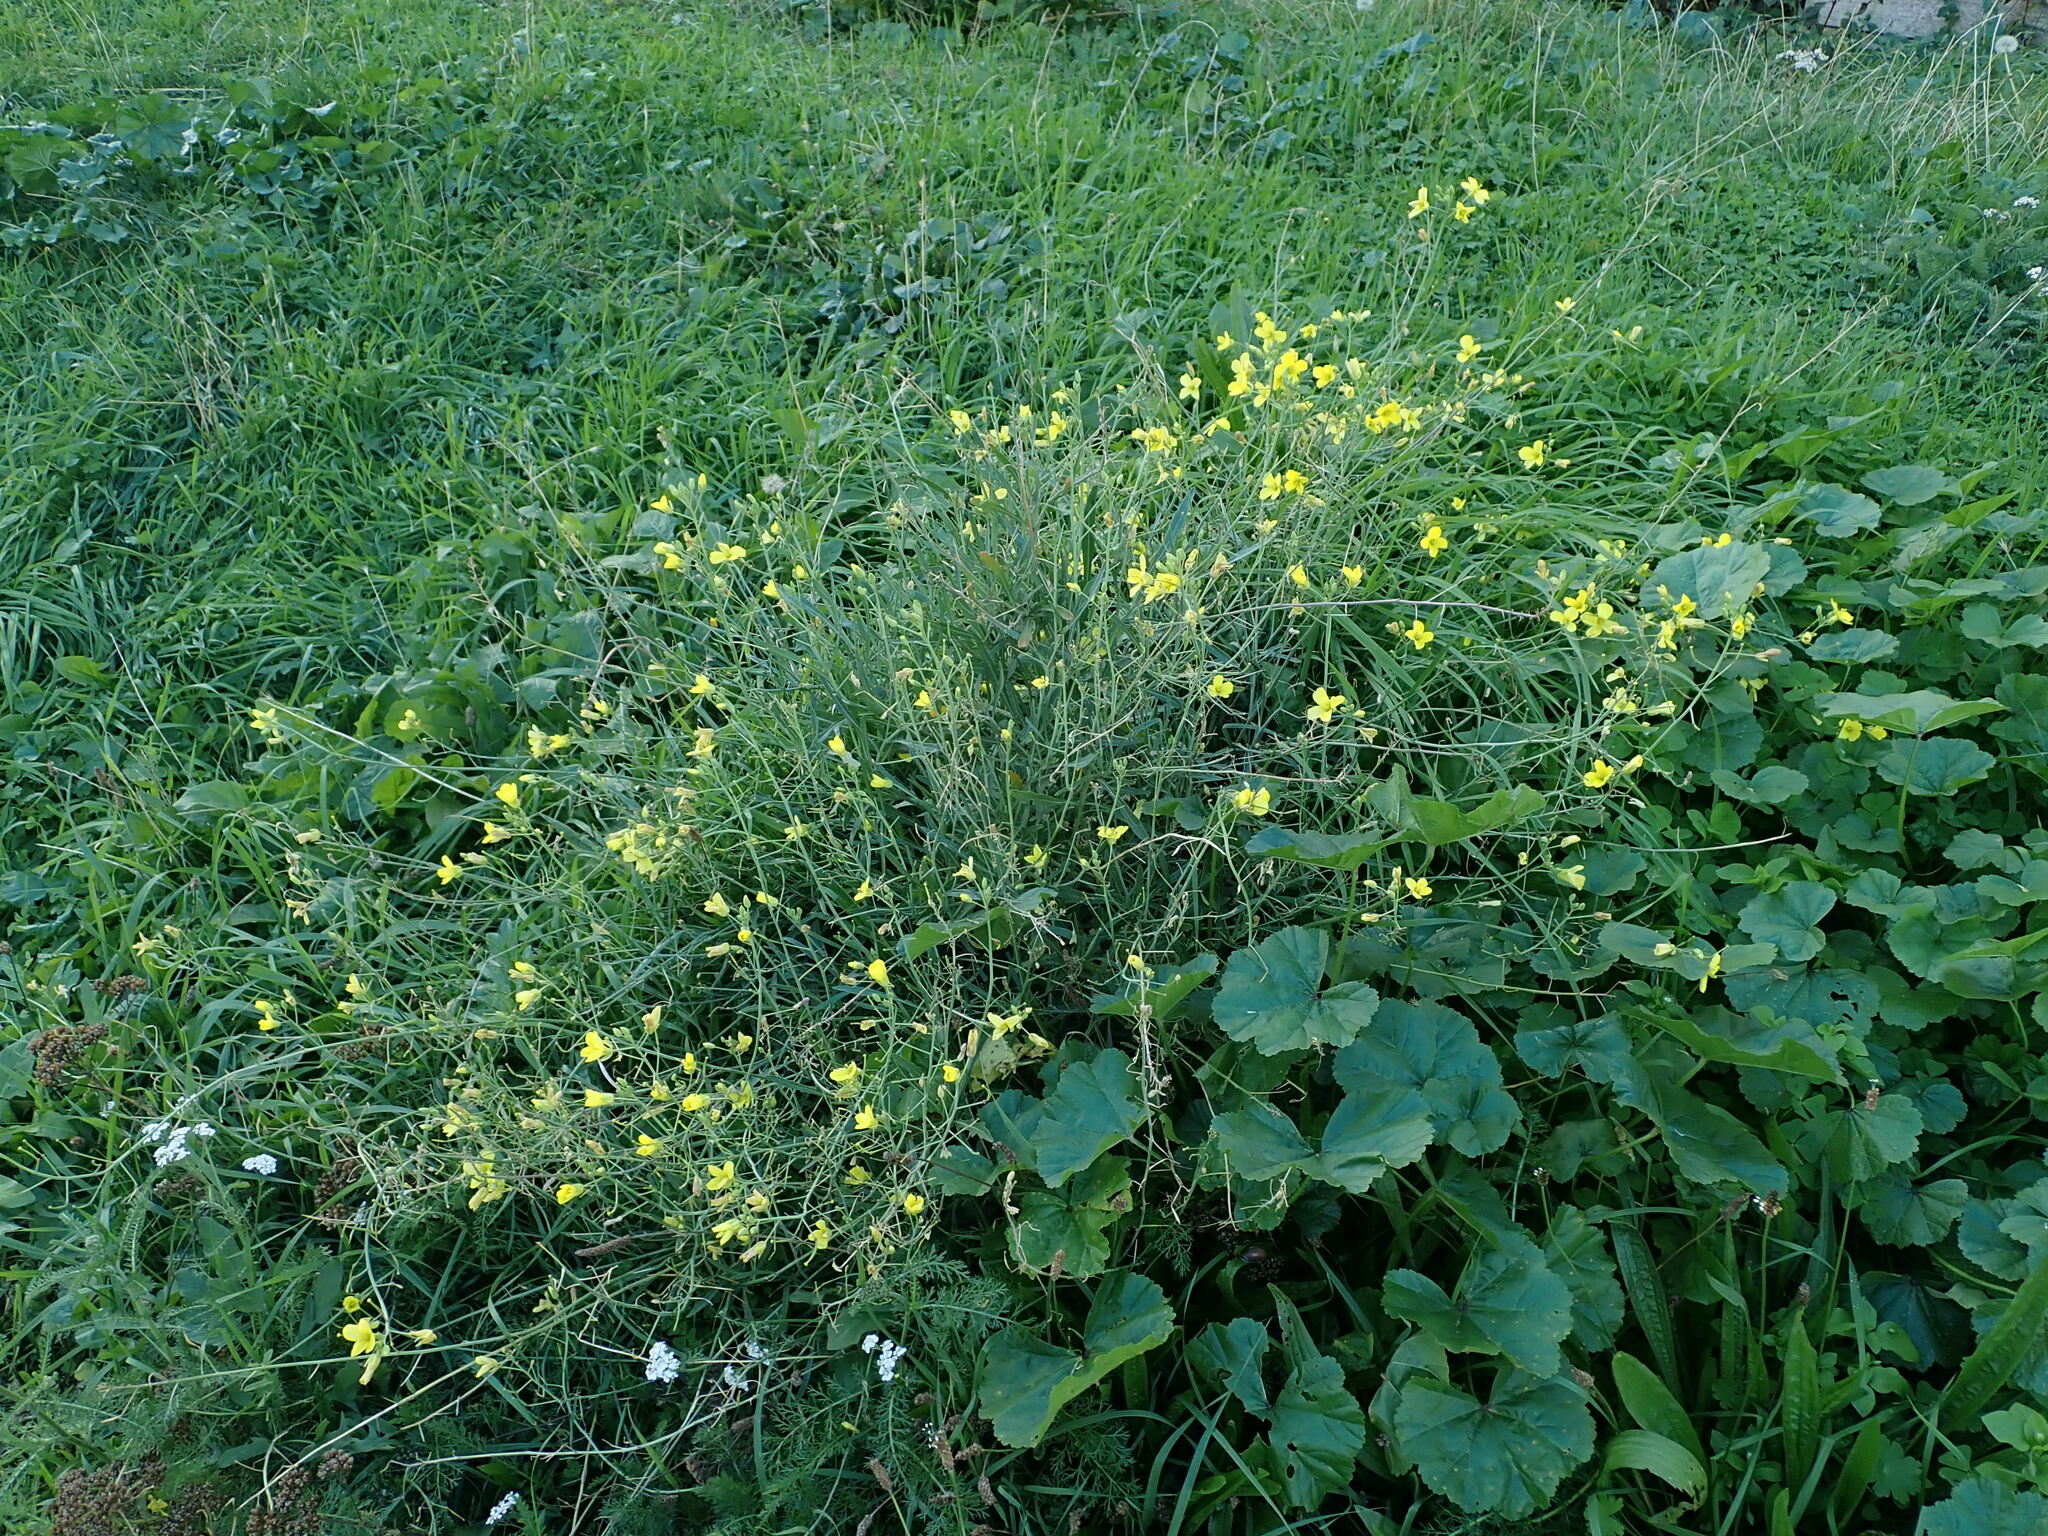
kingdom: Plantae
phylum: Tracheophyta
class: Magnoliopsida
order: Brassicales
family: Brassicaceae
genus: Diplotaxis
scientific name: Diplotaxis tenuifolia
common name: Perennial wall-rocket
